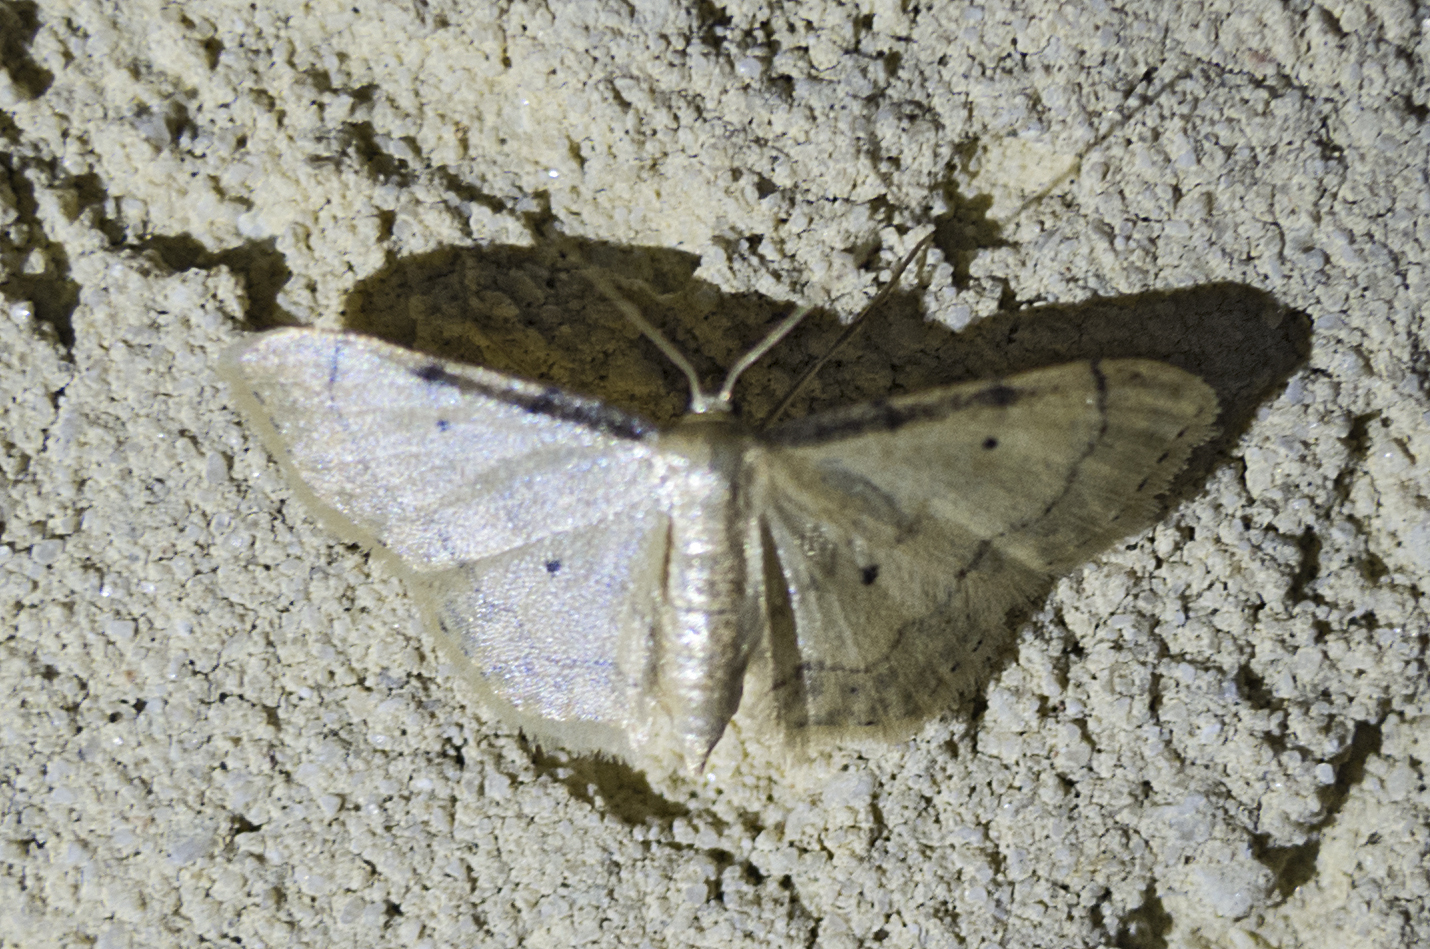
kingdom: Animalia
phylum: Arthropoda
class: Insecta
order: Lepidoptera
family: Geometridae
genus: Idaea
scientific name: Idaea politaria
